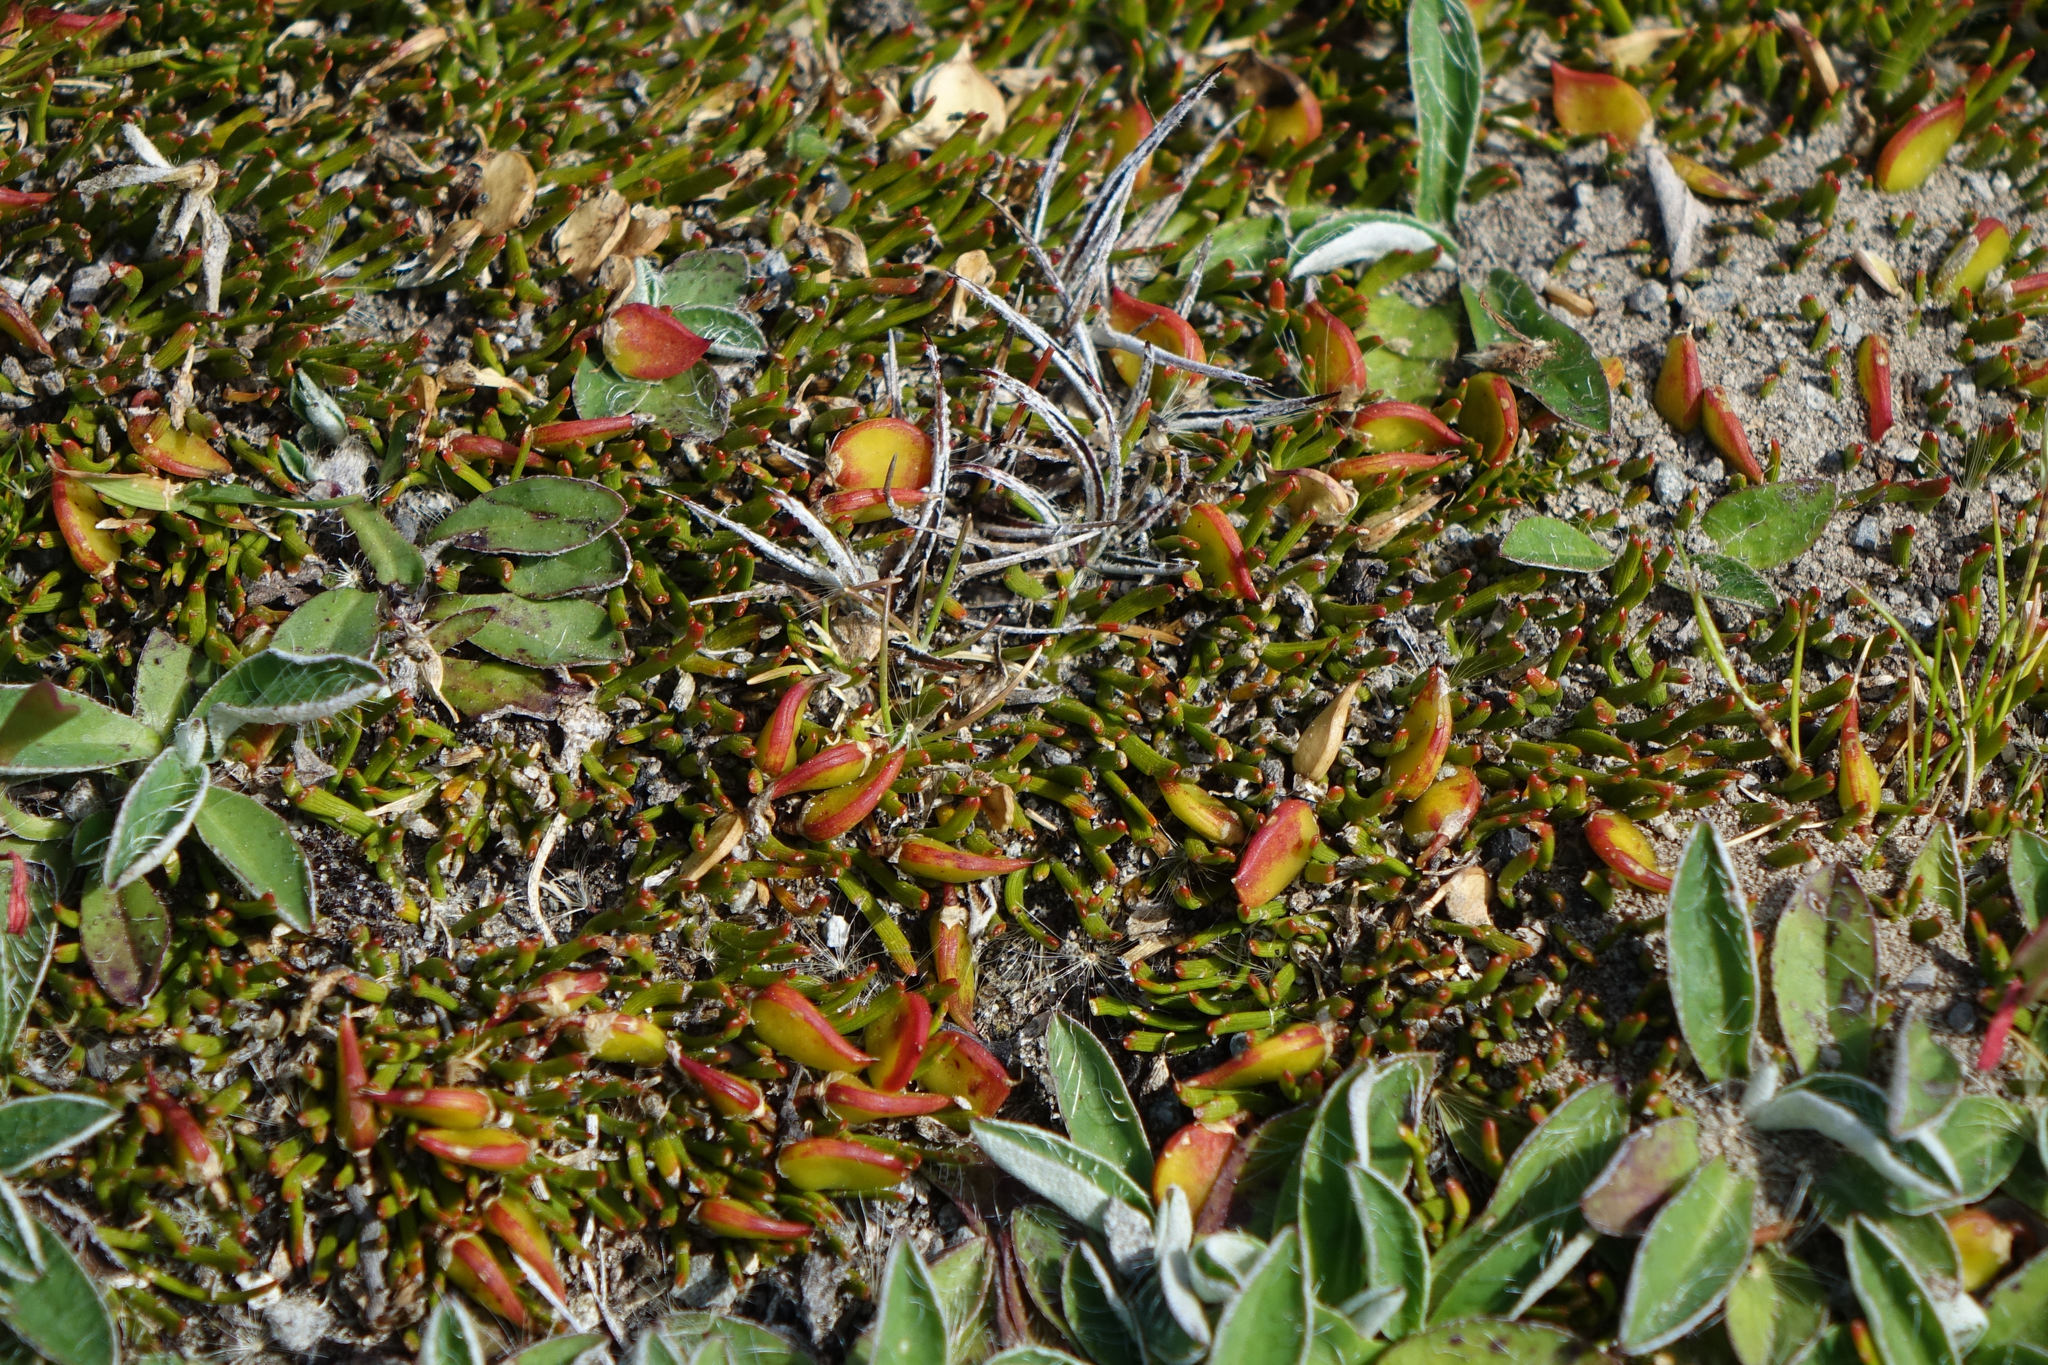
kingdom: Plantae
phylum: Tracheophyta
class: Magnoliopsida
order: Fabales
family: Fabaceae
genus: Carmichaelia
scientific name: Carmichaelia nana
